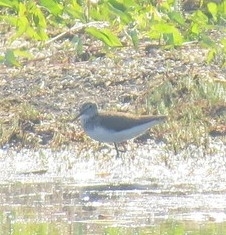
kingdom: Animalia
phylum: Chordata
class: Aves
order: Charadriiformes
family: Scolopacidae
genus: Tringa
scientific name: Tringa ochropus
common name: Green sandpiper
